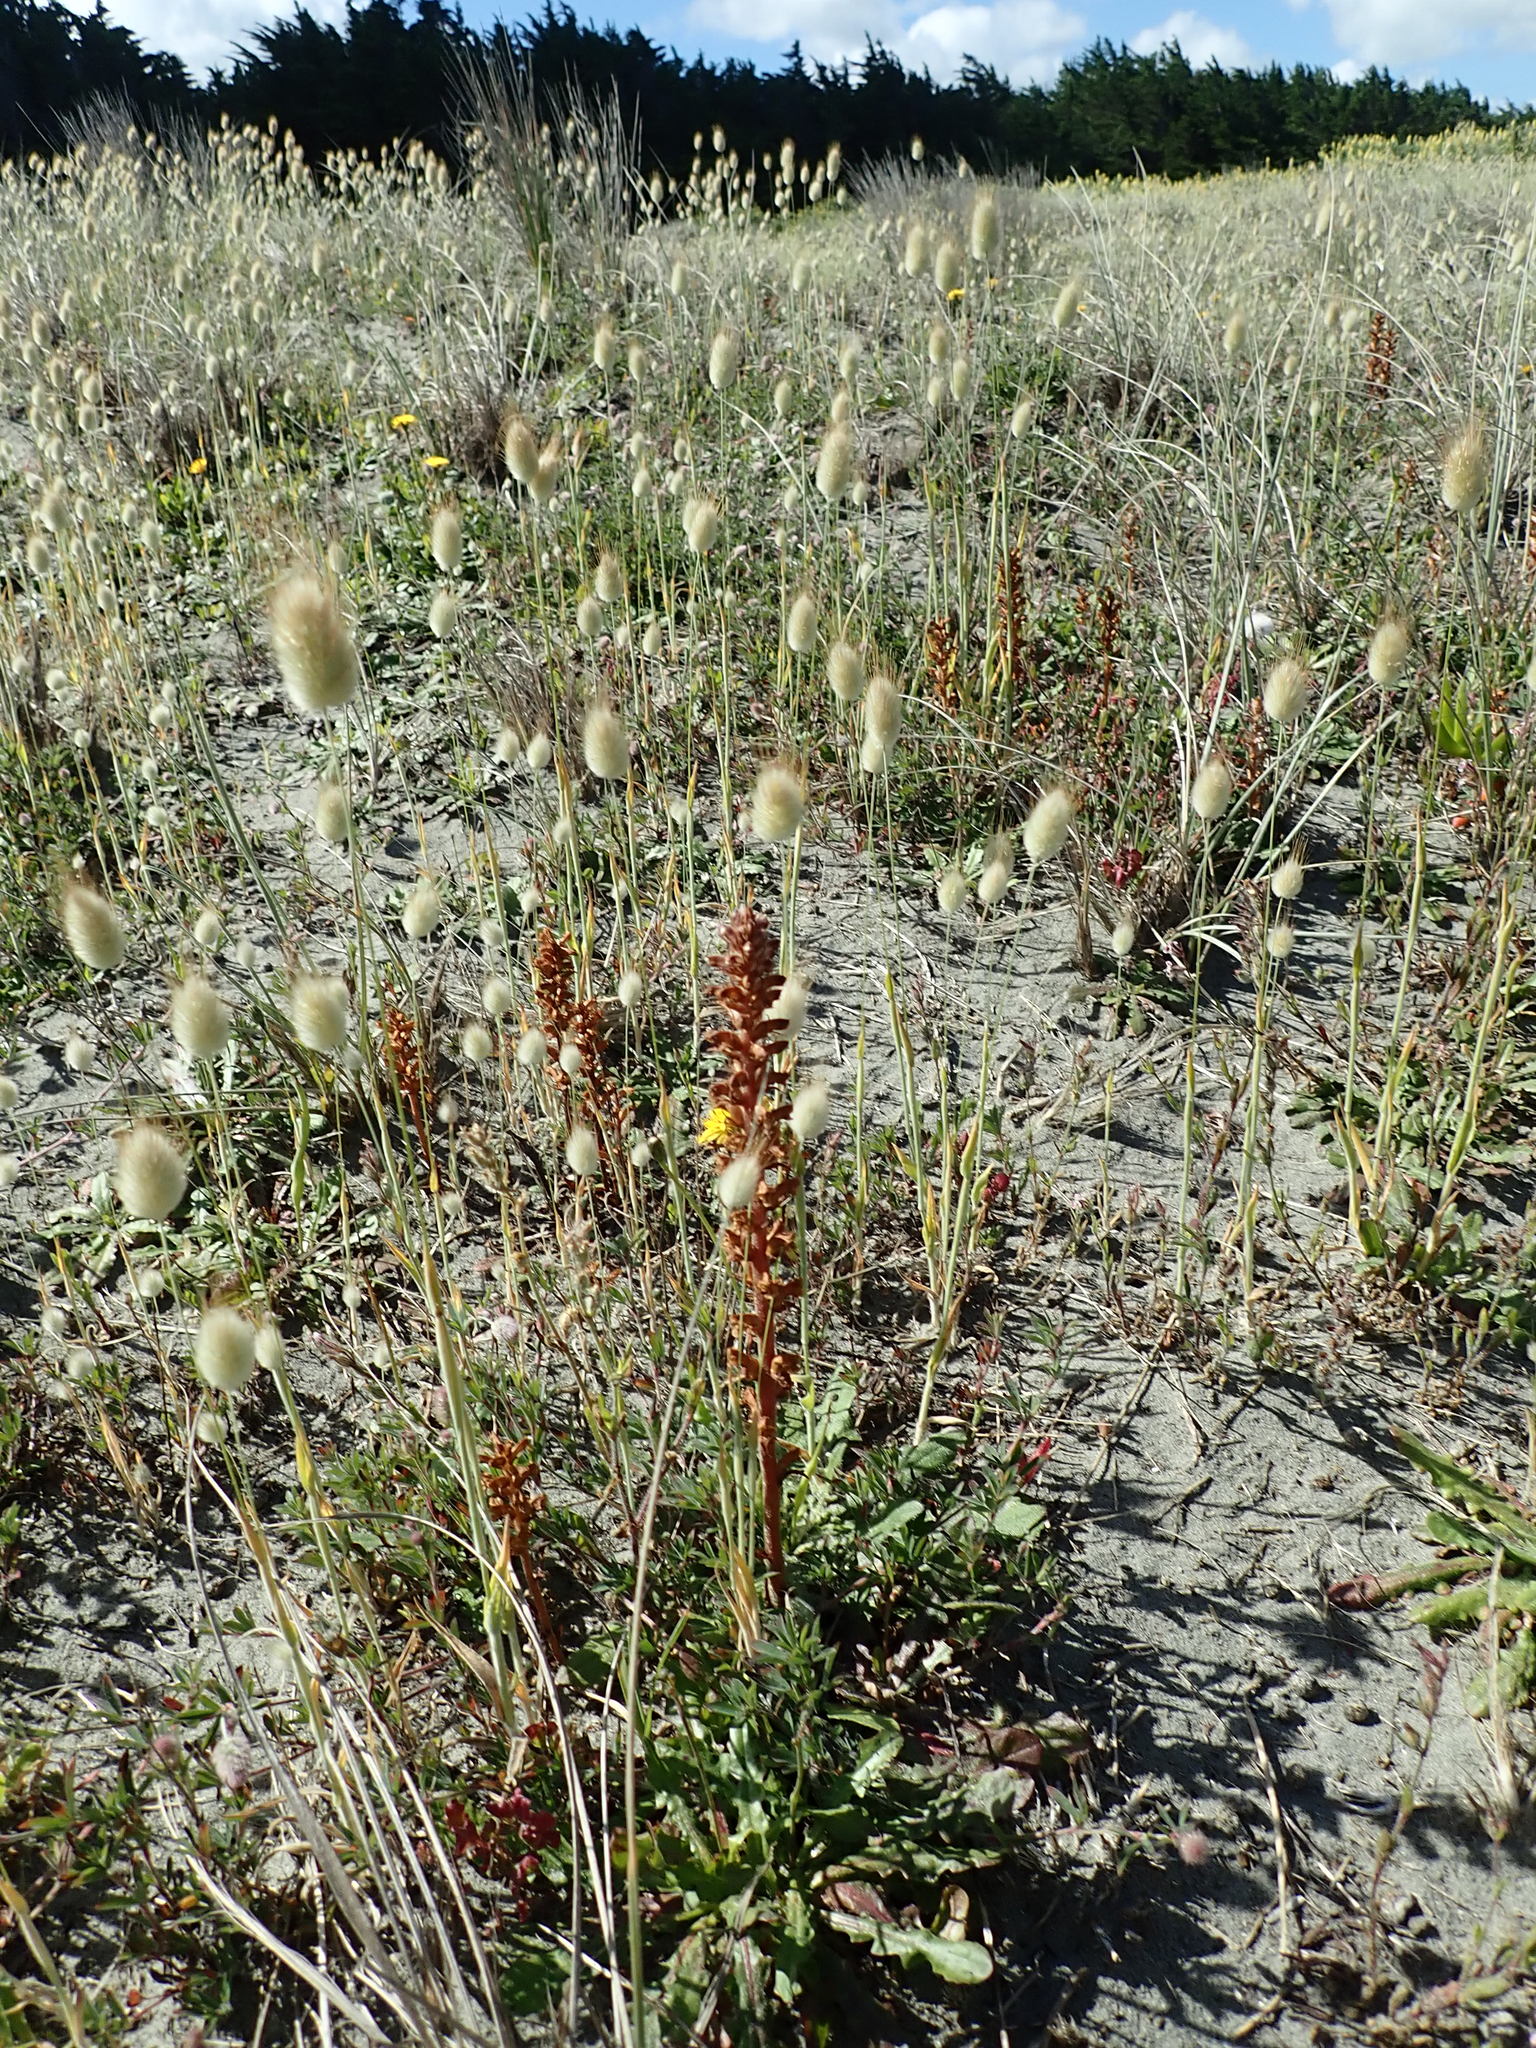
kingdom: Plantae
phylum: Tracheophyta
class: Magnoliopsida
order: Lamiales
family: Orobanchaceae
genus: Orobanche
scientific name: Orobanche minor
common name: Common broomrape
